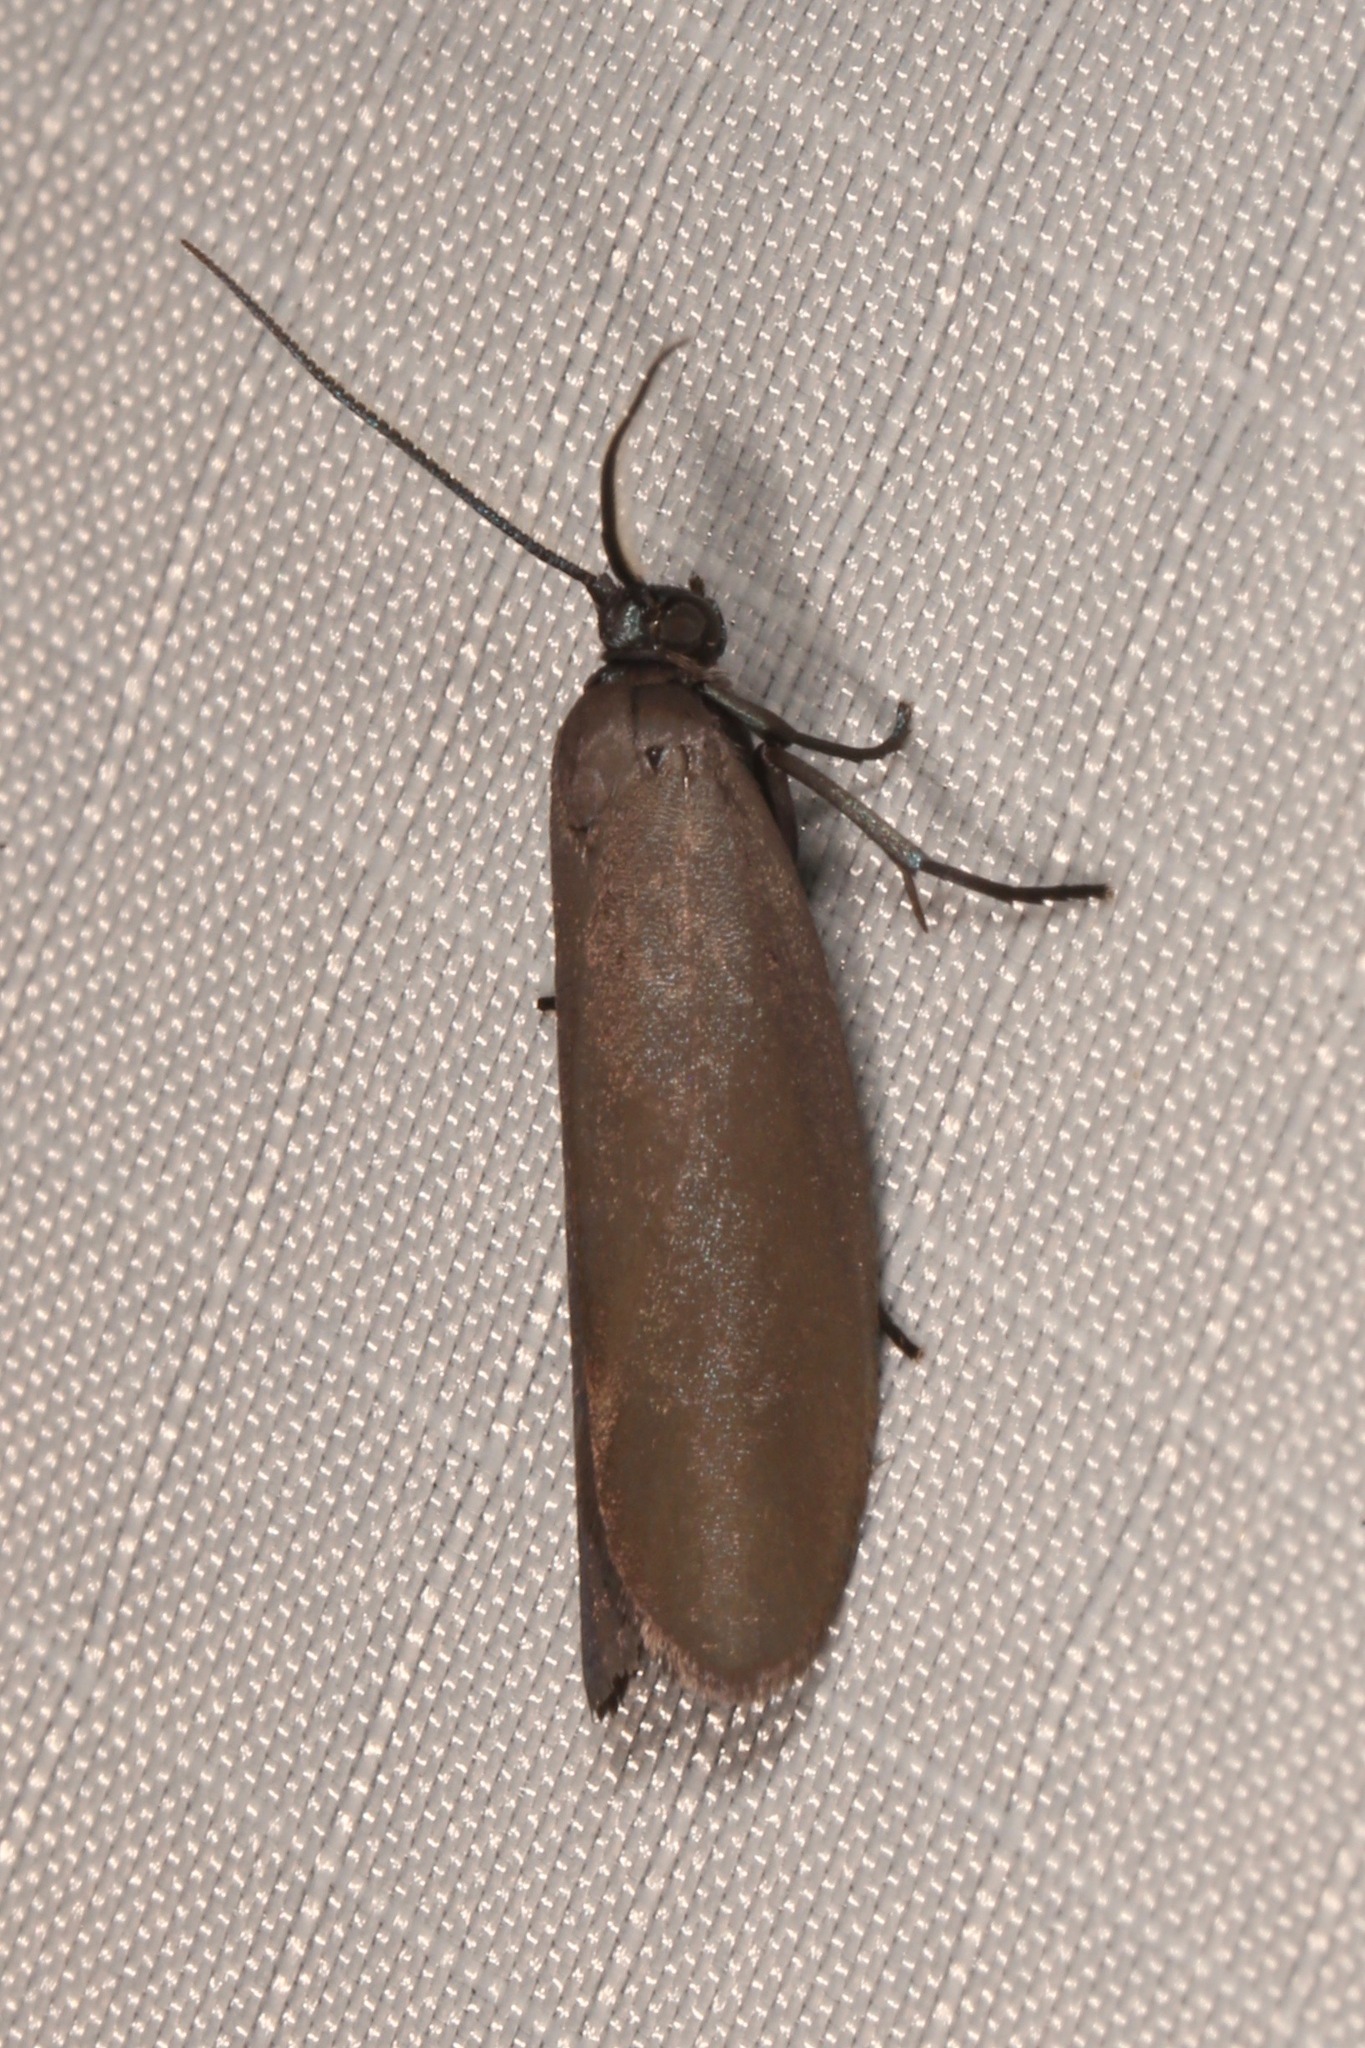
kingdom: Animalia
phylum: Arthropoda
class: Insecta
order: Lepidoptera
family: Urodidae
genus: Urodus
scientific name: Urodus parvula
